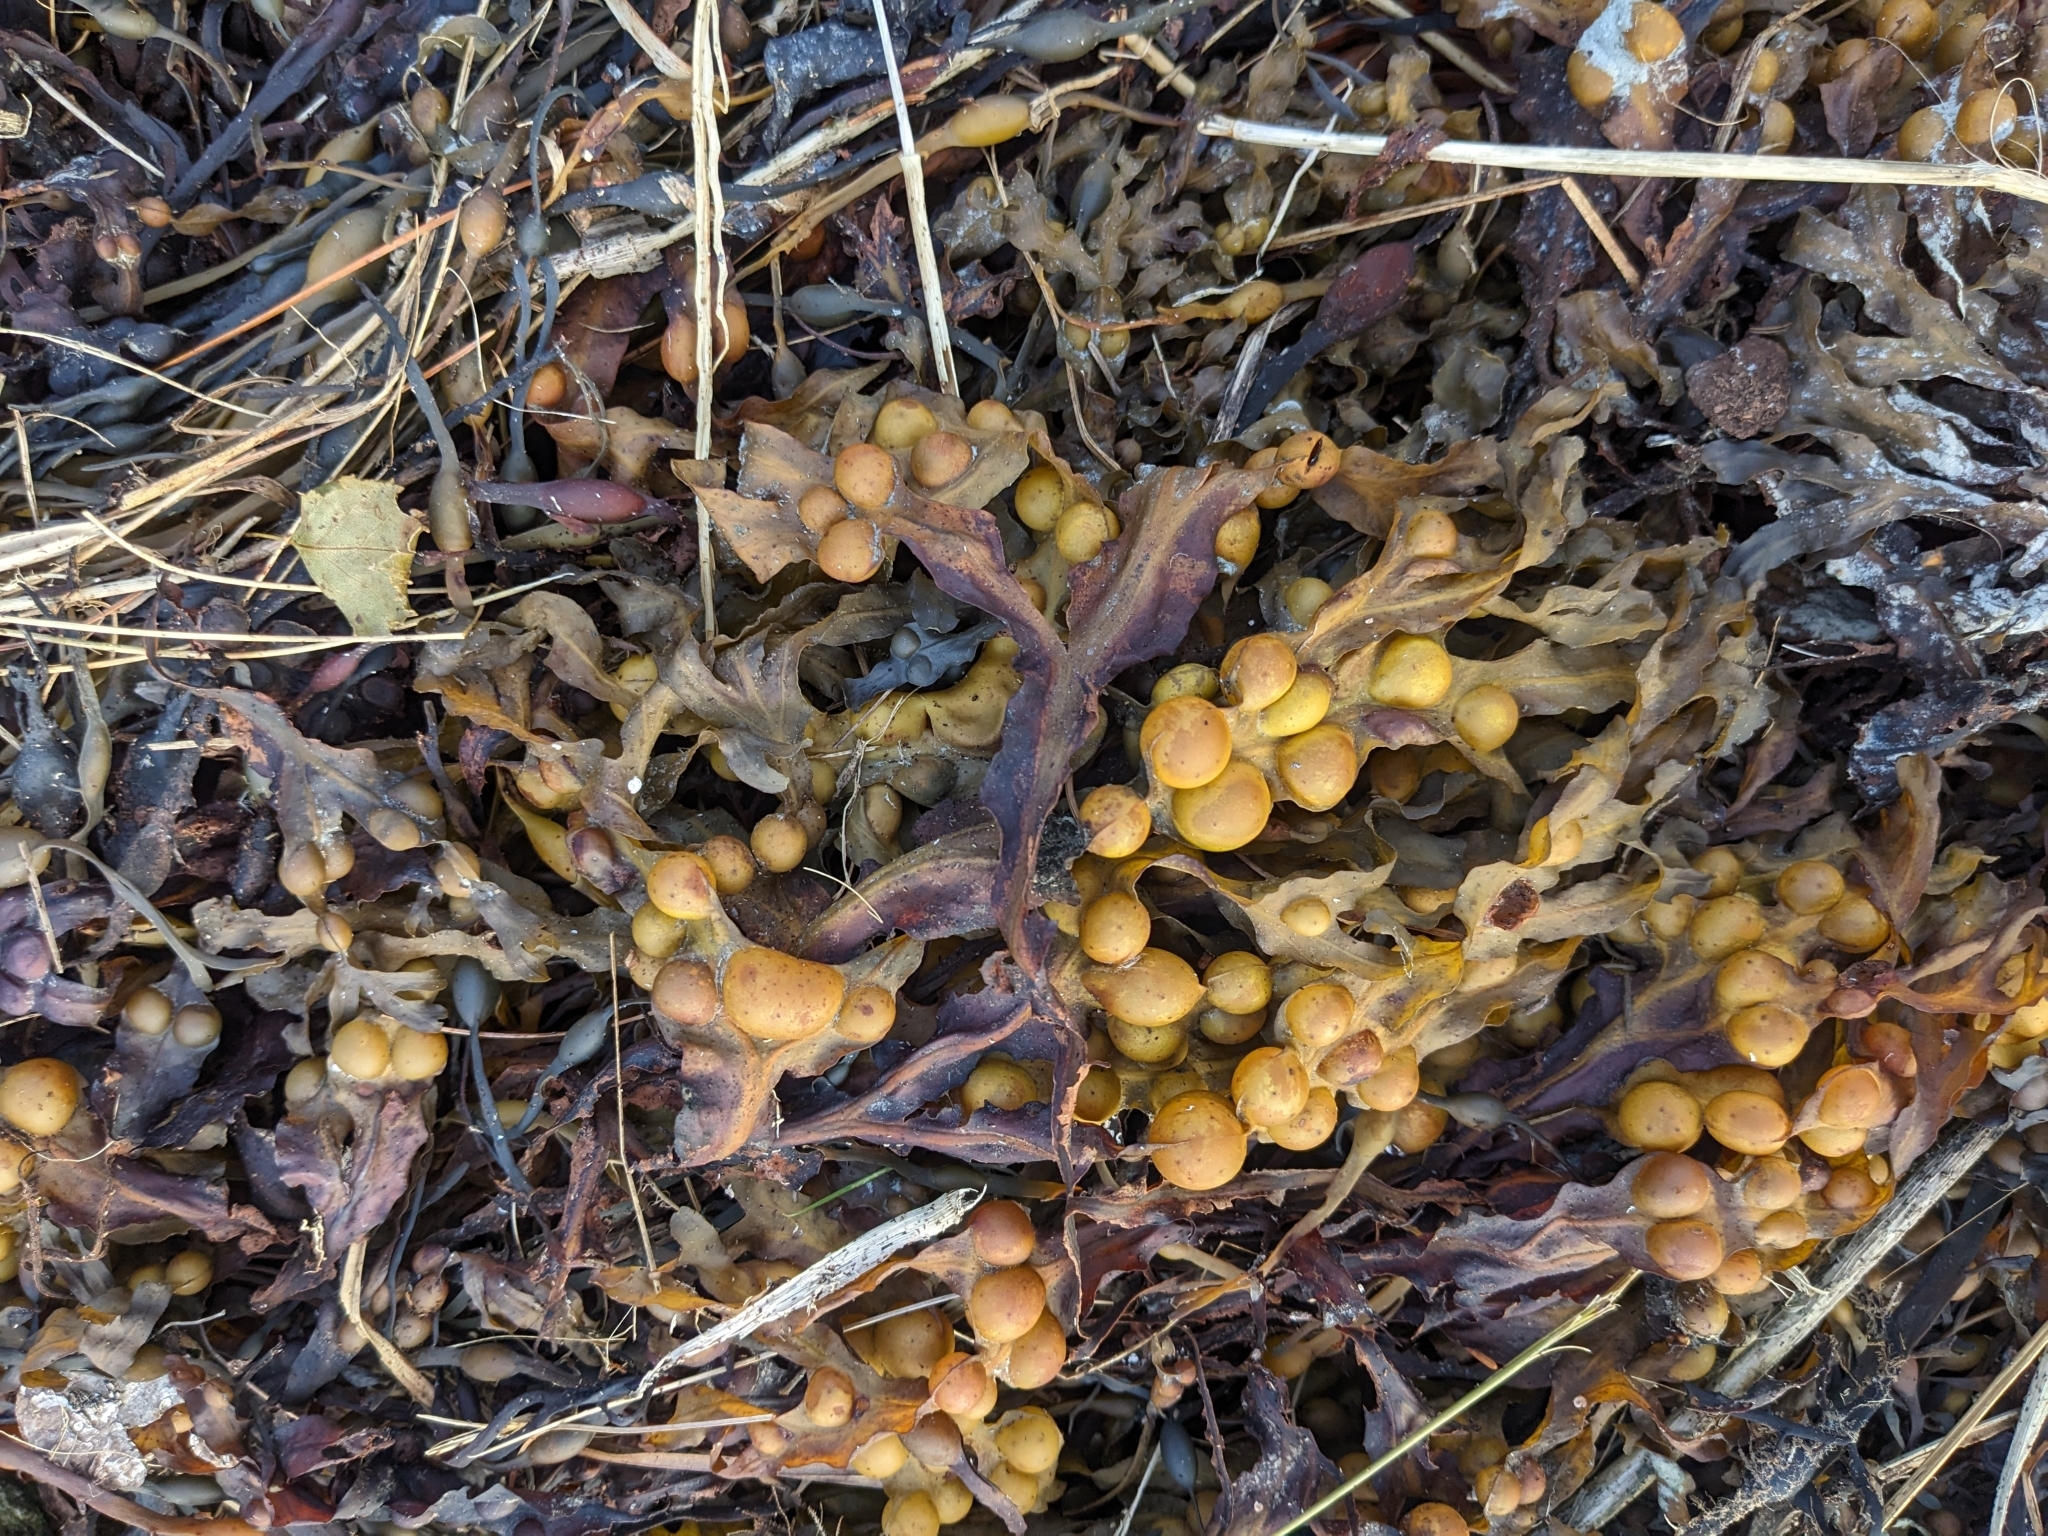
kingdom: Chromista
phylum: Ochrophyta
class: Phaeophyceae
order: Fucales
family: Fucaceae
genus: Fucus
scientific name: Fucus vesiculosus
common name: Bladder wrack
